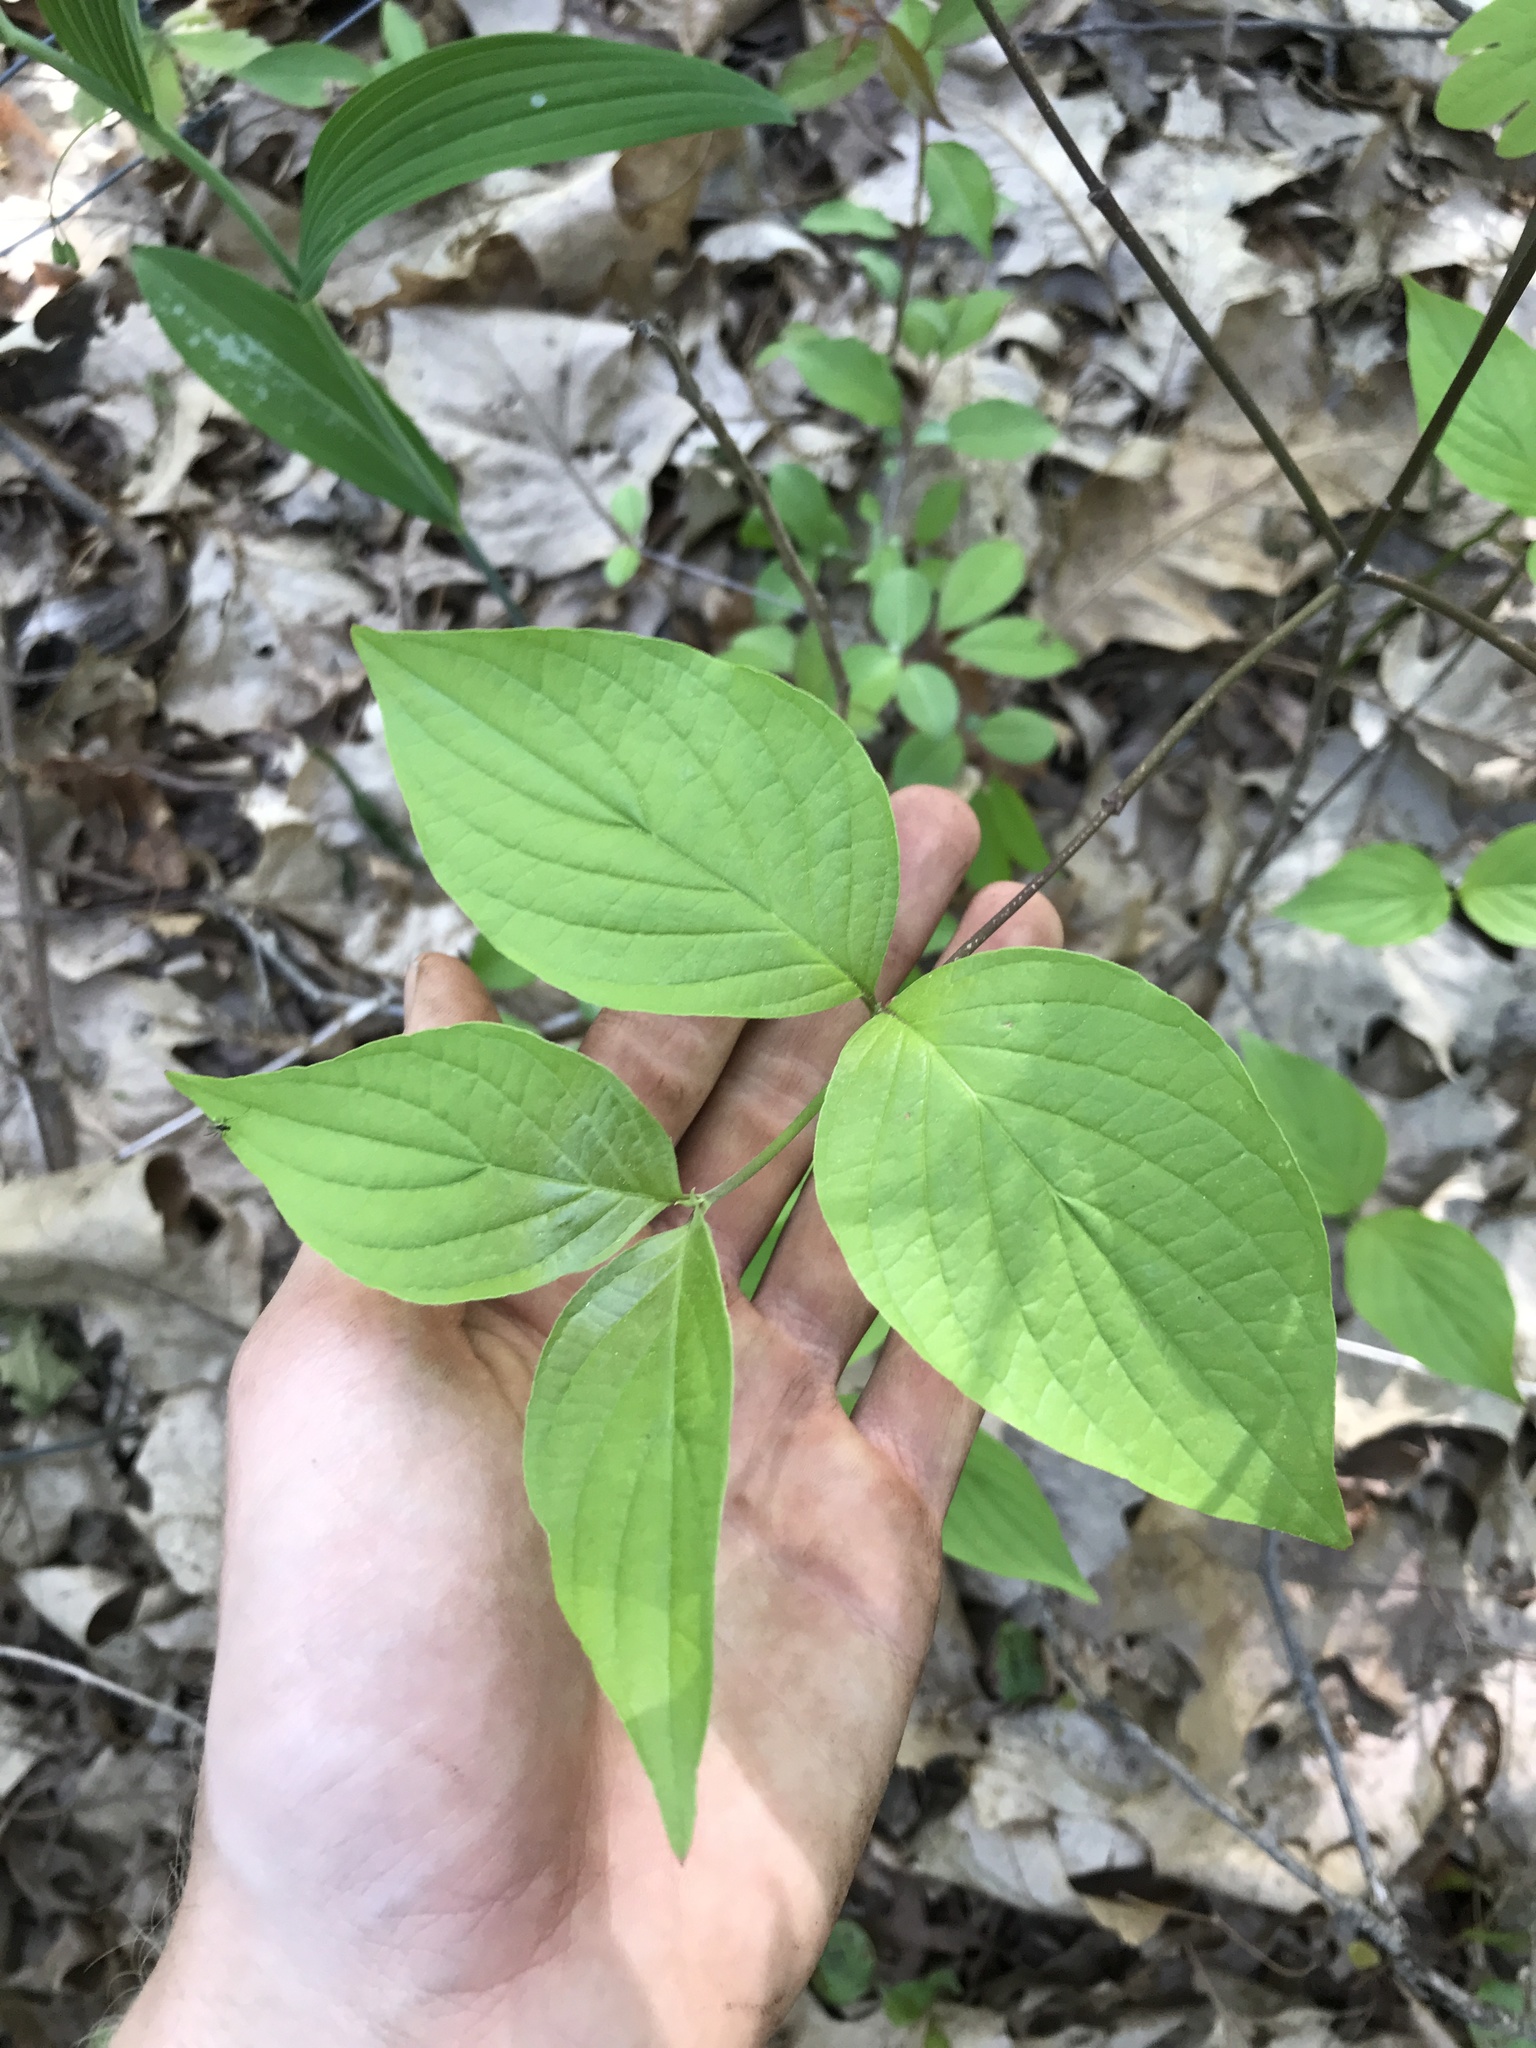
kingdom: Plantae
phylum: Tracheophyta
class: Magnoliopsida
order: Cornales
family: Cornaceae
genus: Cornus
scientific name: Cornus florida
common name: Flowering dogwood
